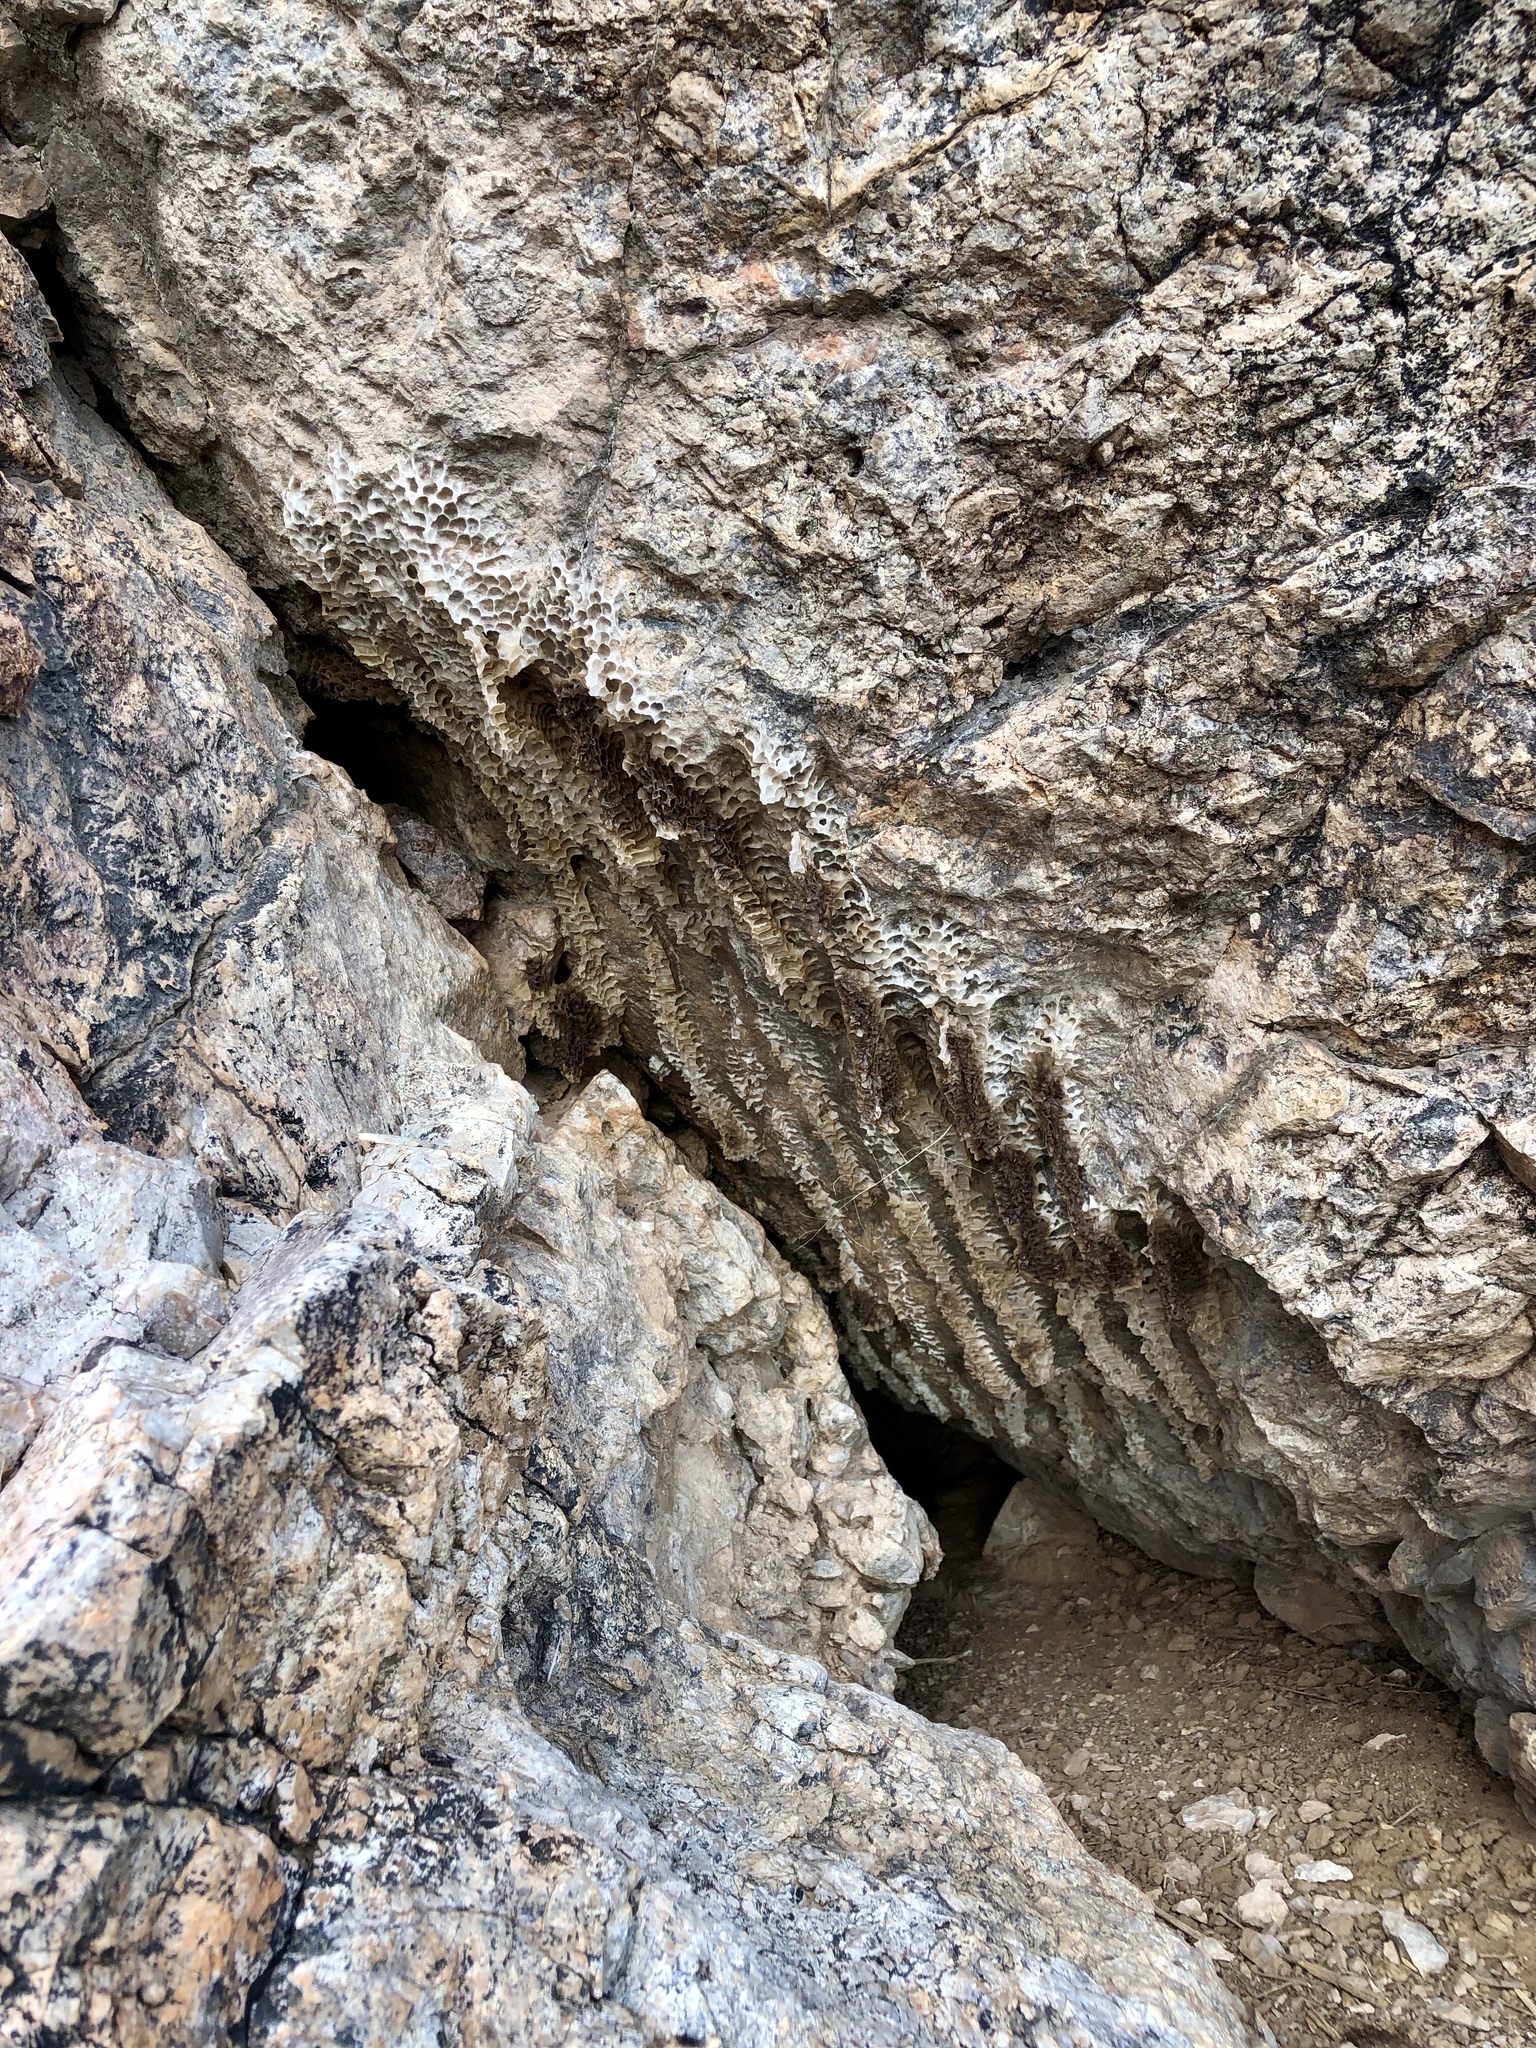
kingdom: Animalia
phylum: Arthropoda
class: Insecta
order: Hymenoptera
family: Apidae
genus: Apis
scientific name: Apis mellifera
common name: Honey bee
